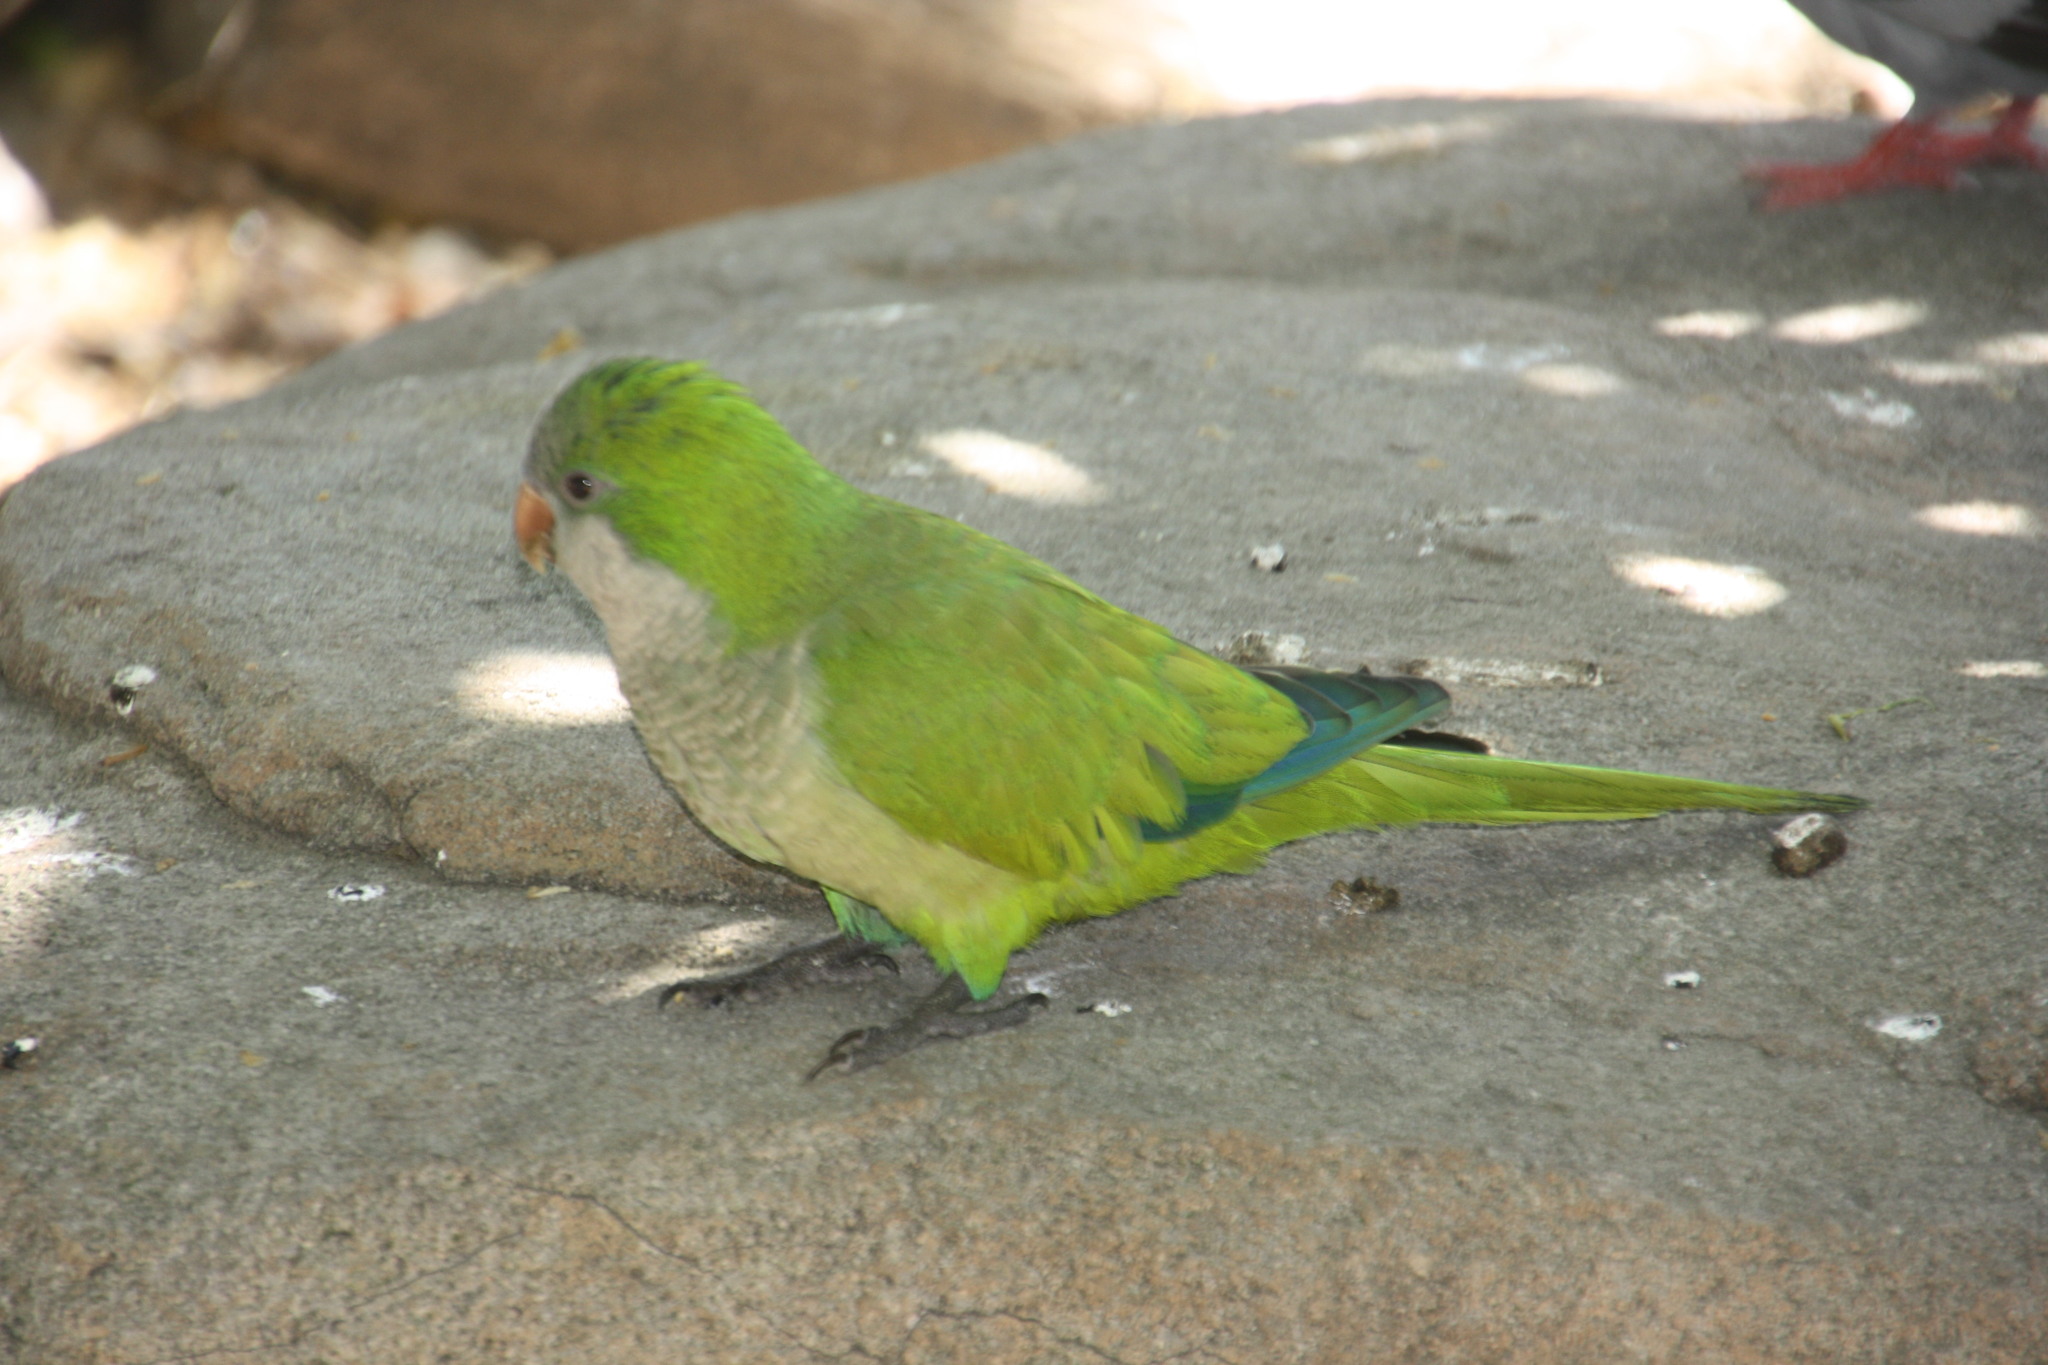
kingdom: Animalia
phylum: Chordata
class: Aves
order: Psittaciformes
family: Psittacidae
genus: Myiopsitta
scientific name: Myiopsitta monachus
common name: Monk parakeet
